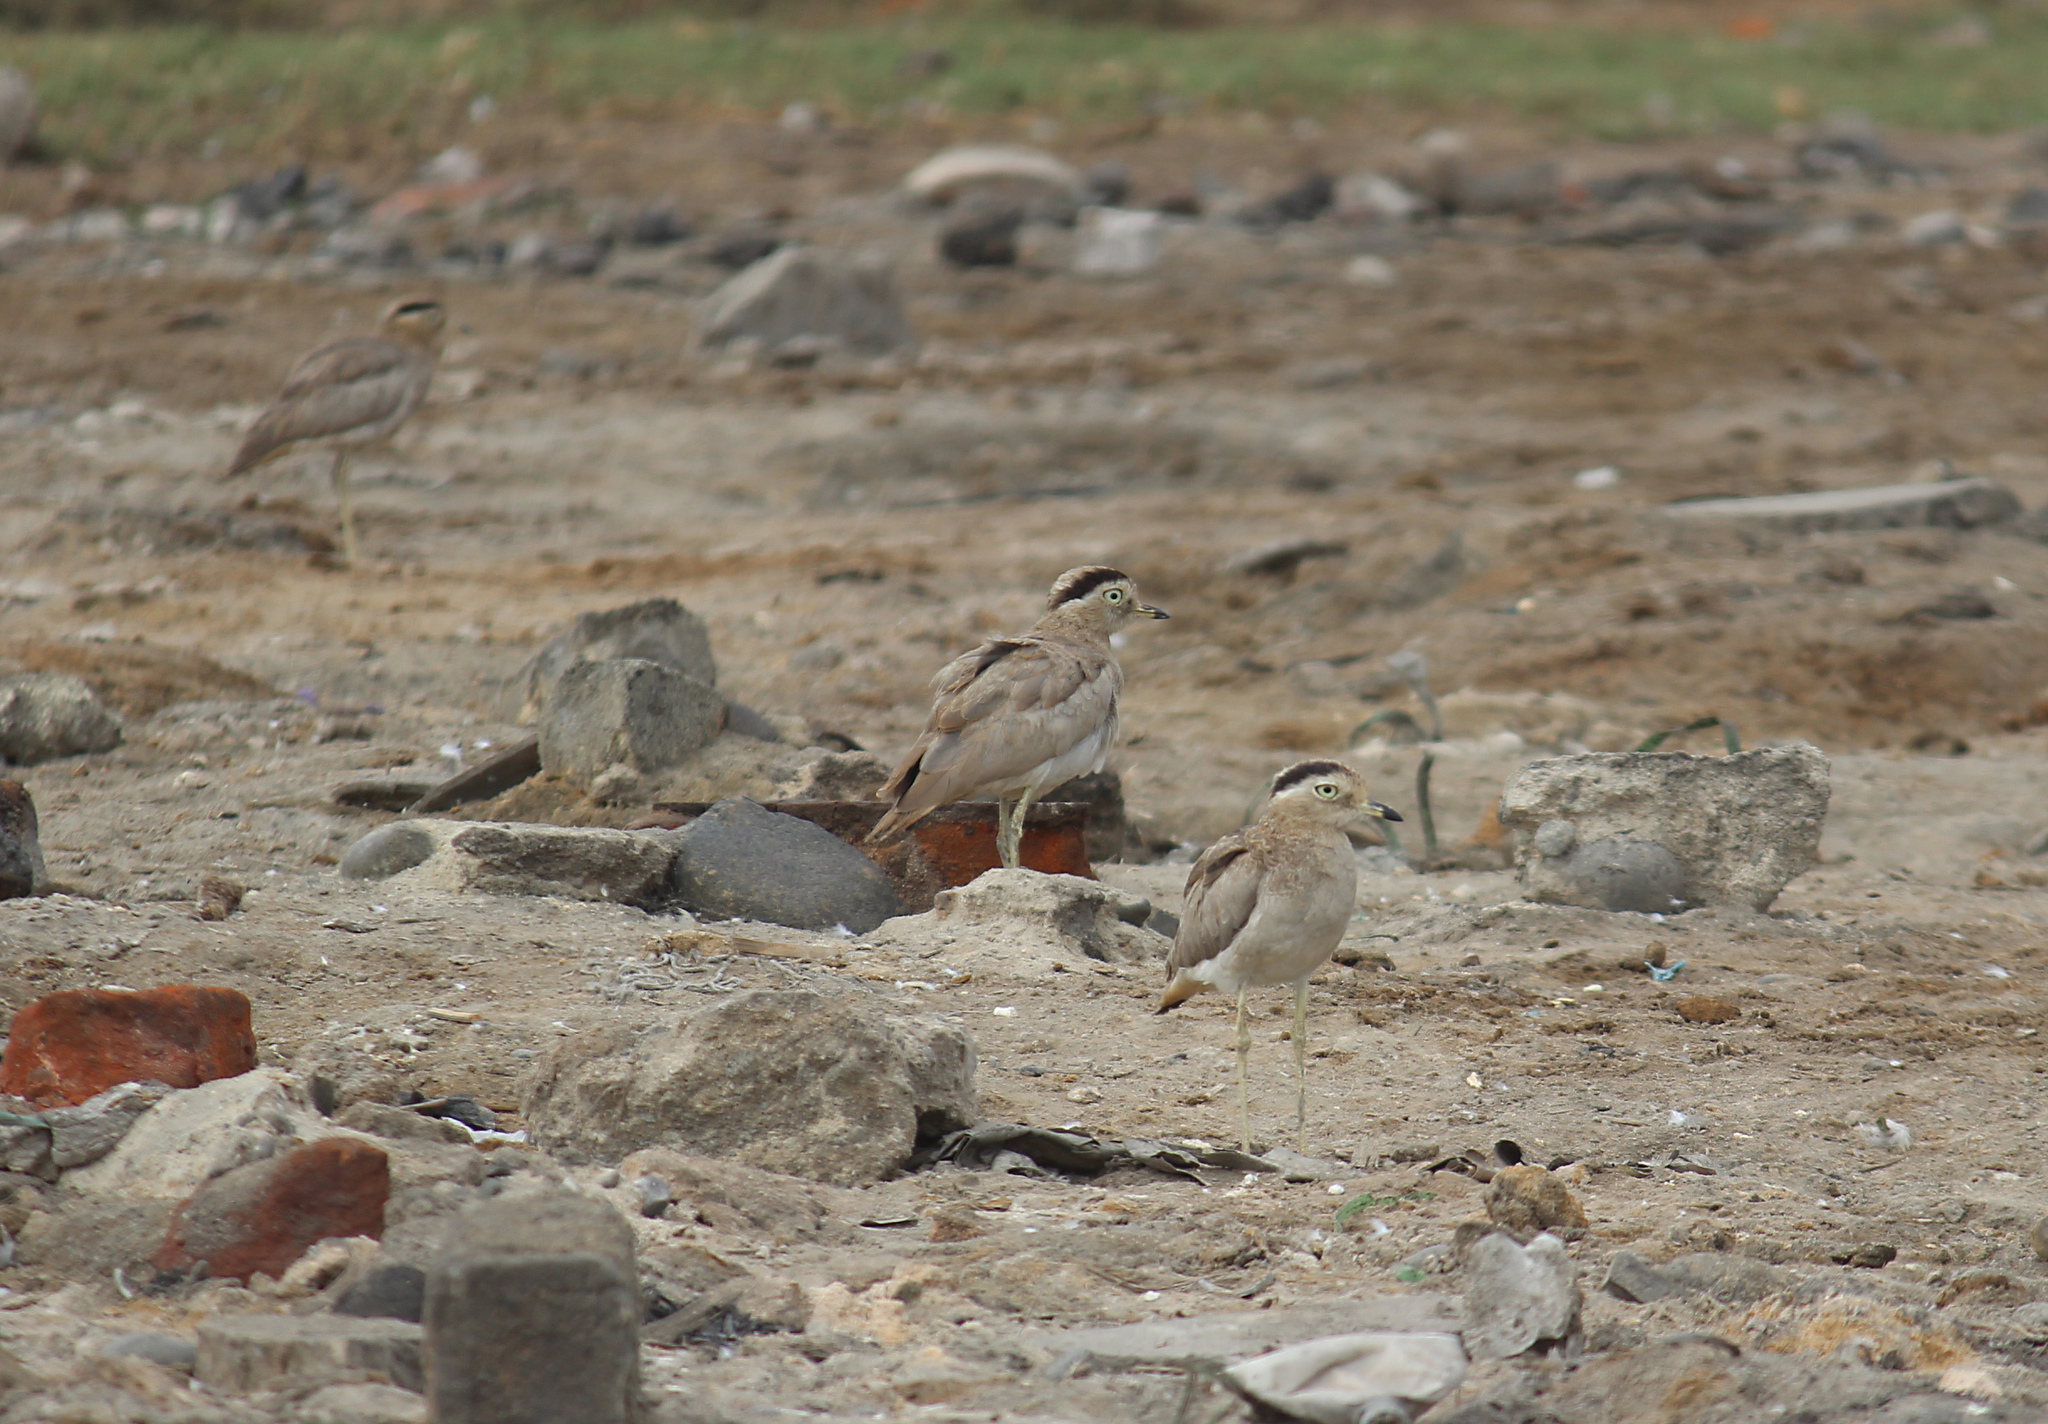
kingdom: Animalia
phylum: Chordata
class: Aves
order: Charadriiformes
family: Burhinidae
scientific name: Burhinidae
